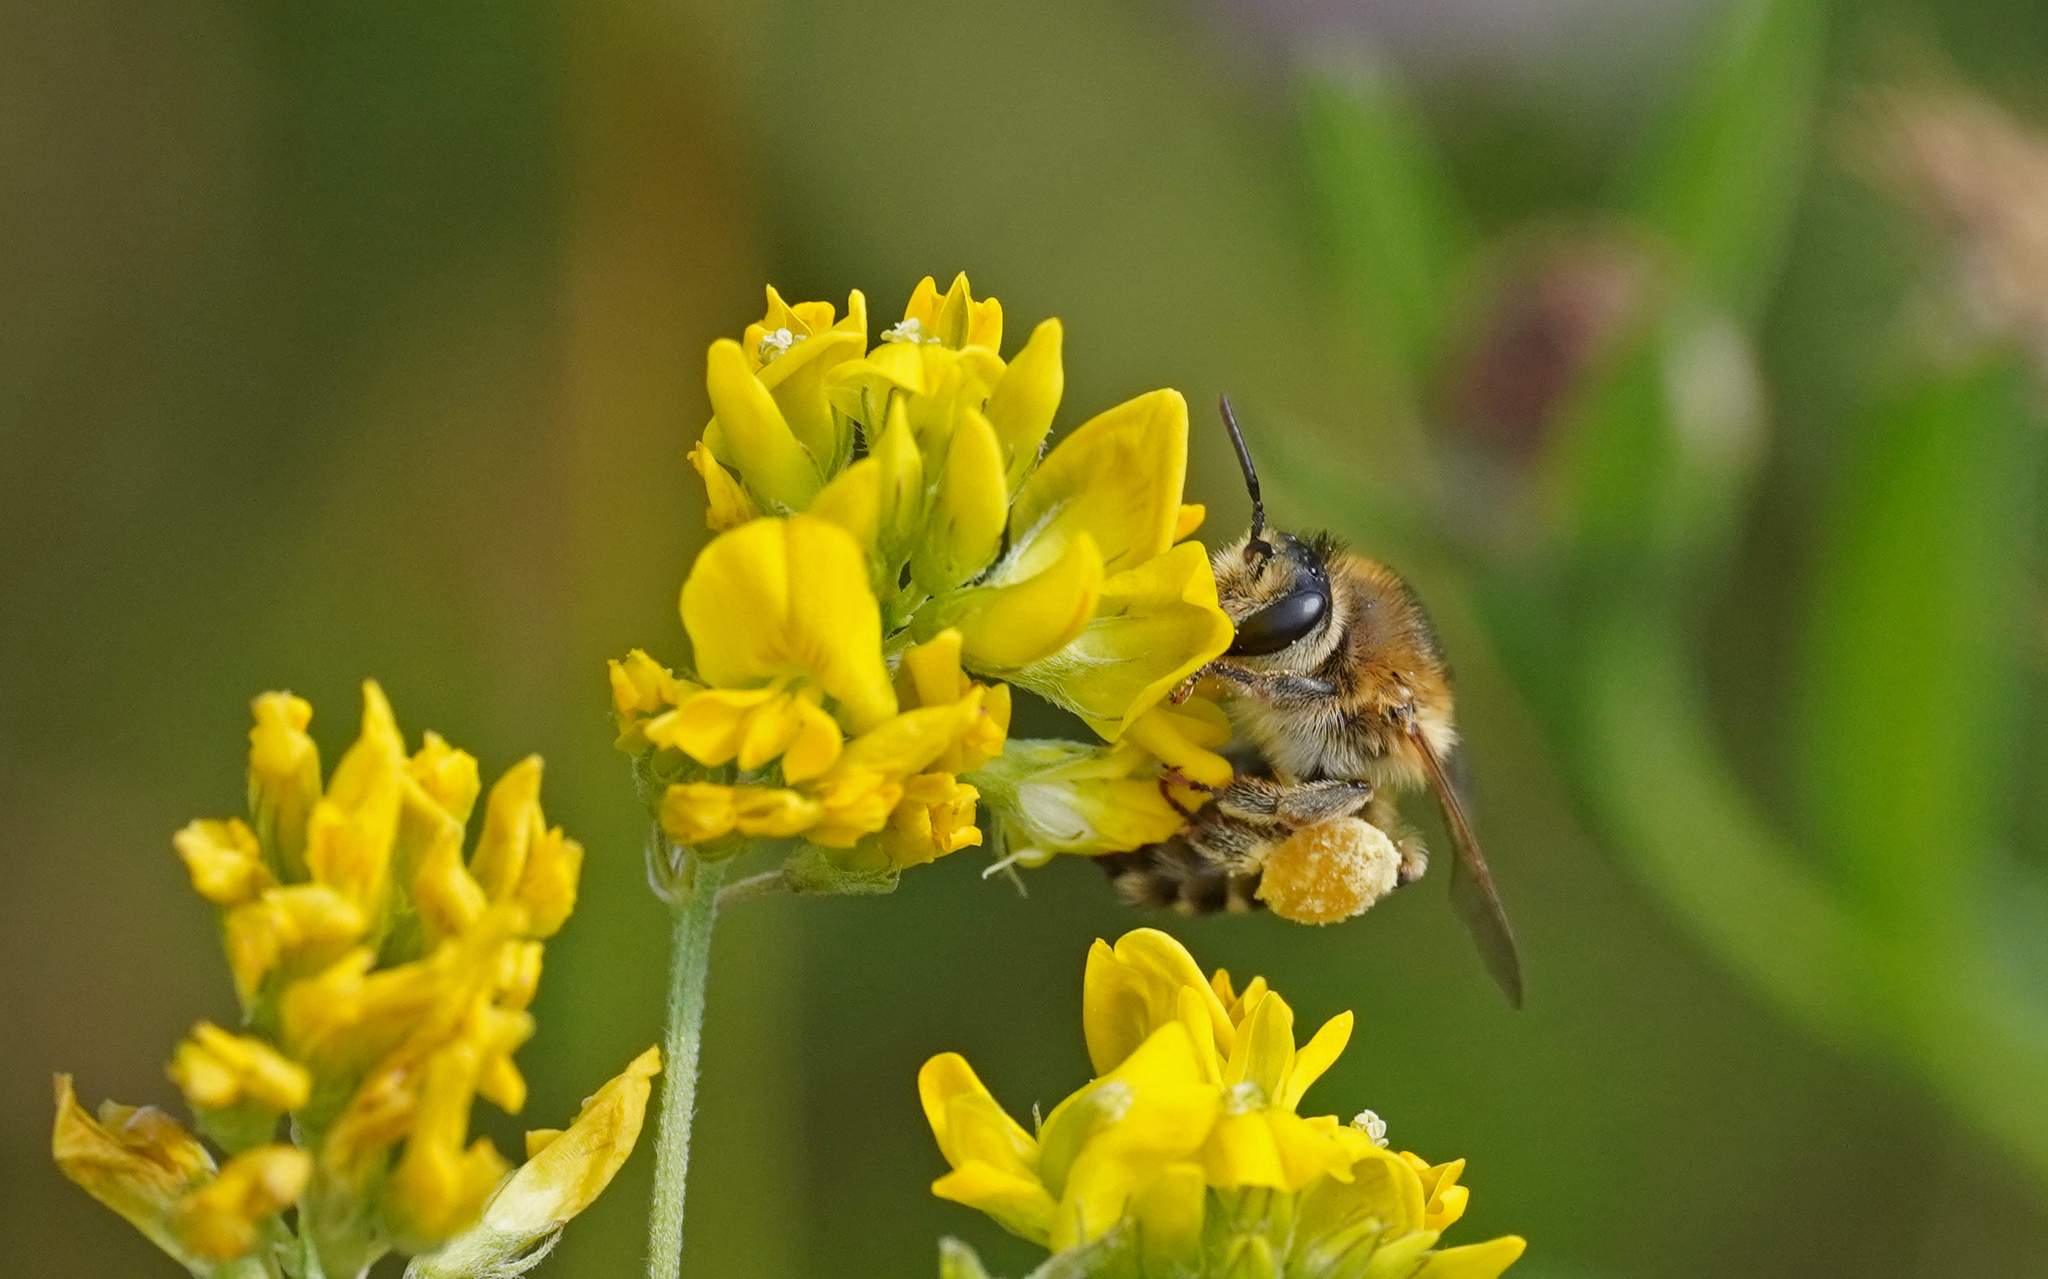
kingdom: Animalia
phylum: Arthropoda
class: Insecta
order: Hymenoptera
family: Melittidae
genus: Melitta
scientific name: Melitta leporina
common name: Clover melitta
